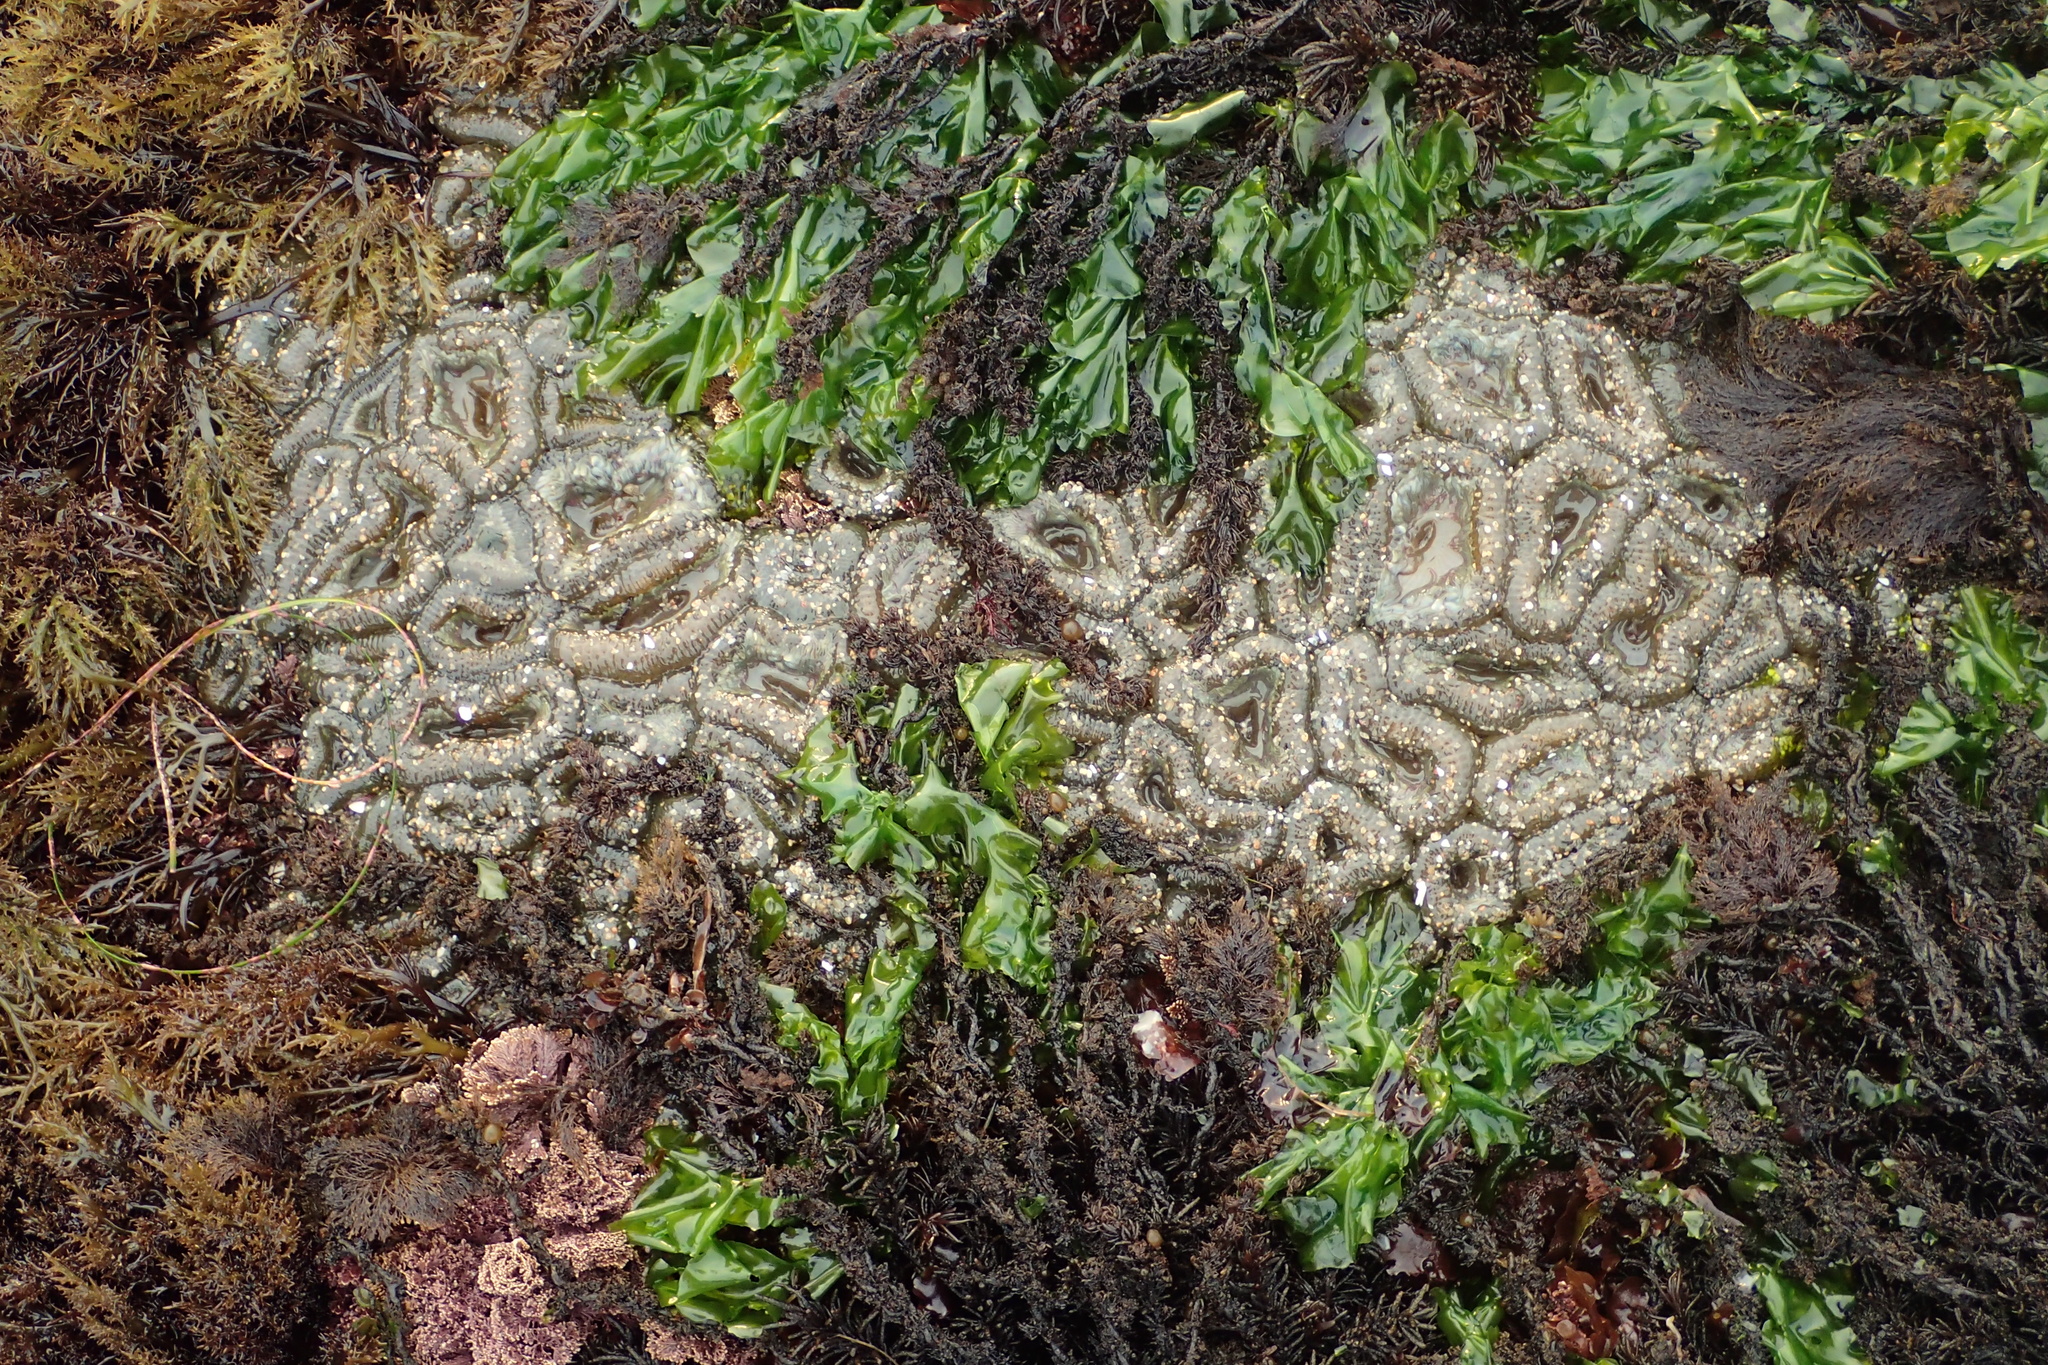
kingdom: Animalia
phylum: Cnidaria
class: Anthozoa
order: Actiniaria
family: Actiniidae
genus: Anthopleura
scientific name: Anthopleura elegantissima
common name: Clonal anemone
